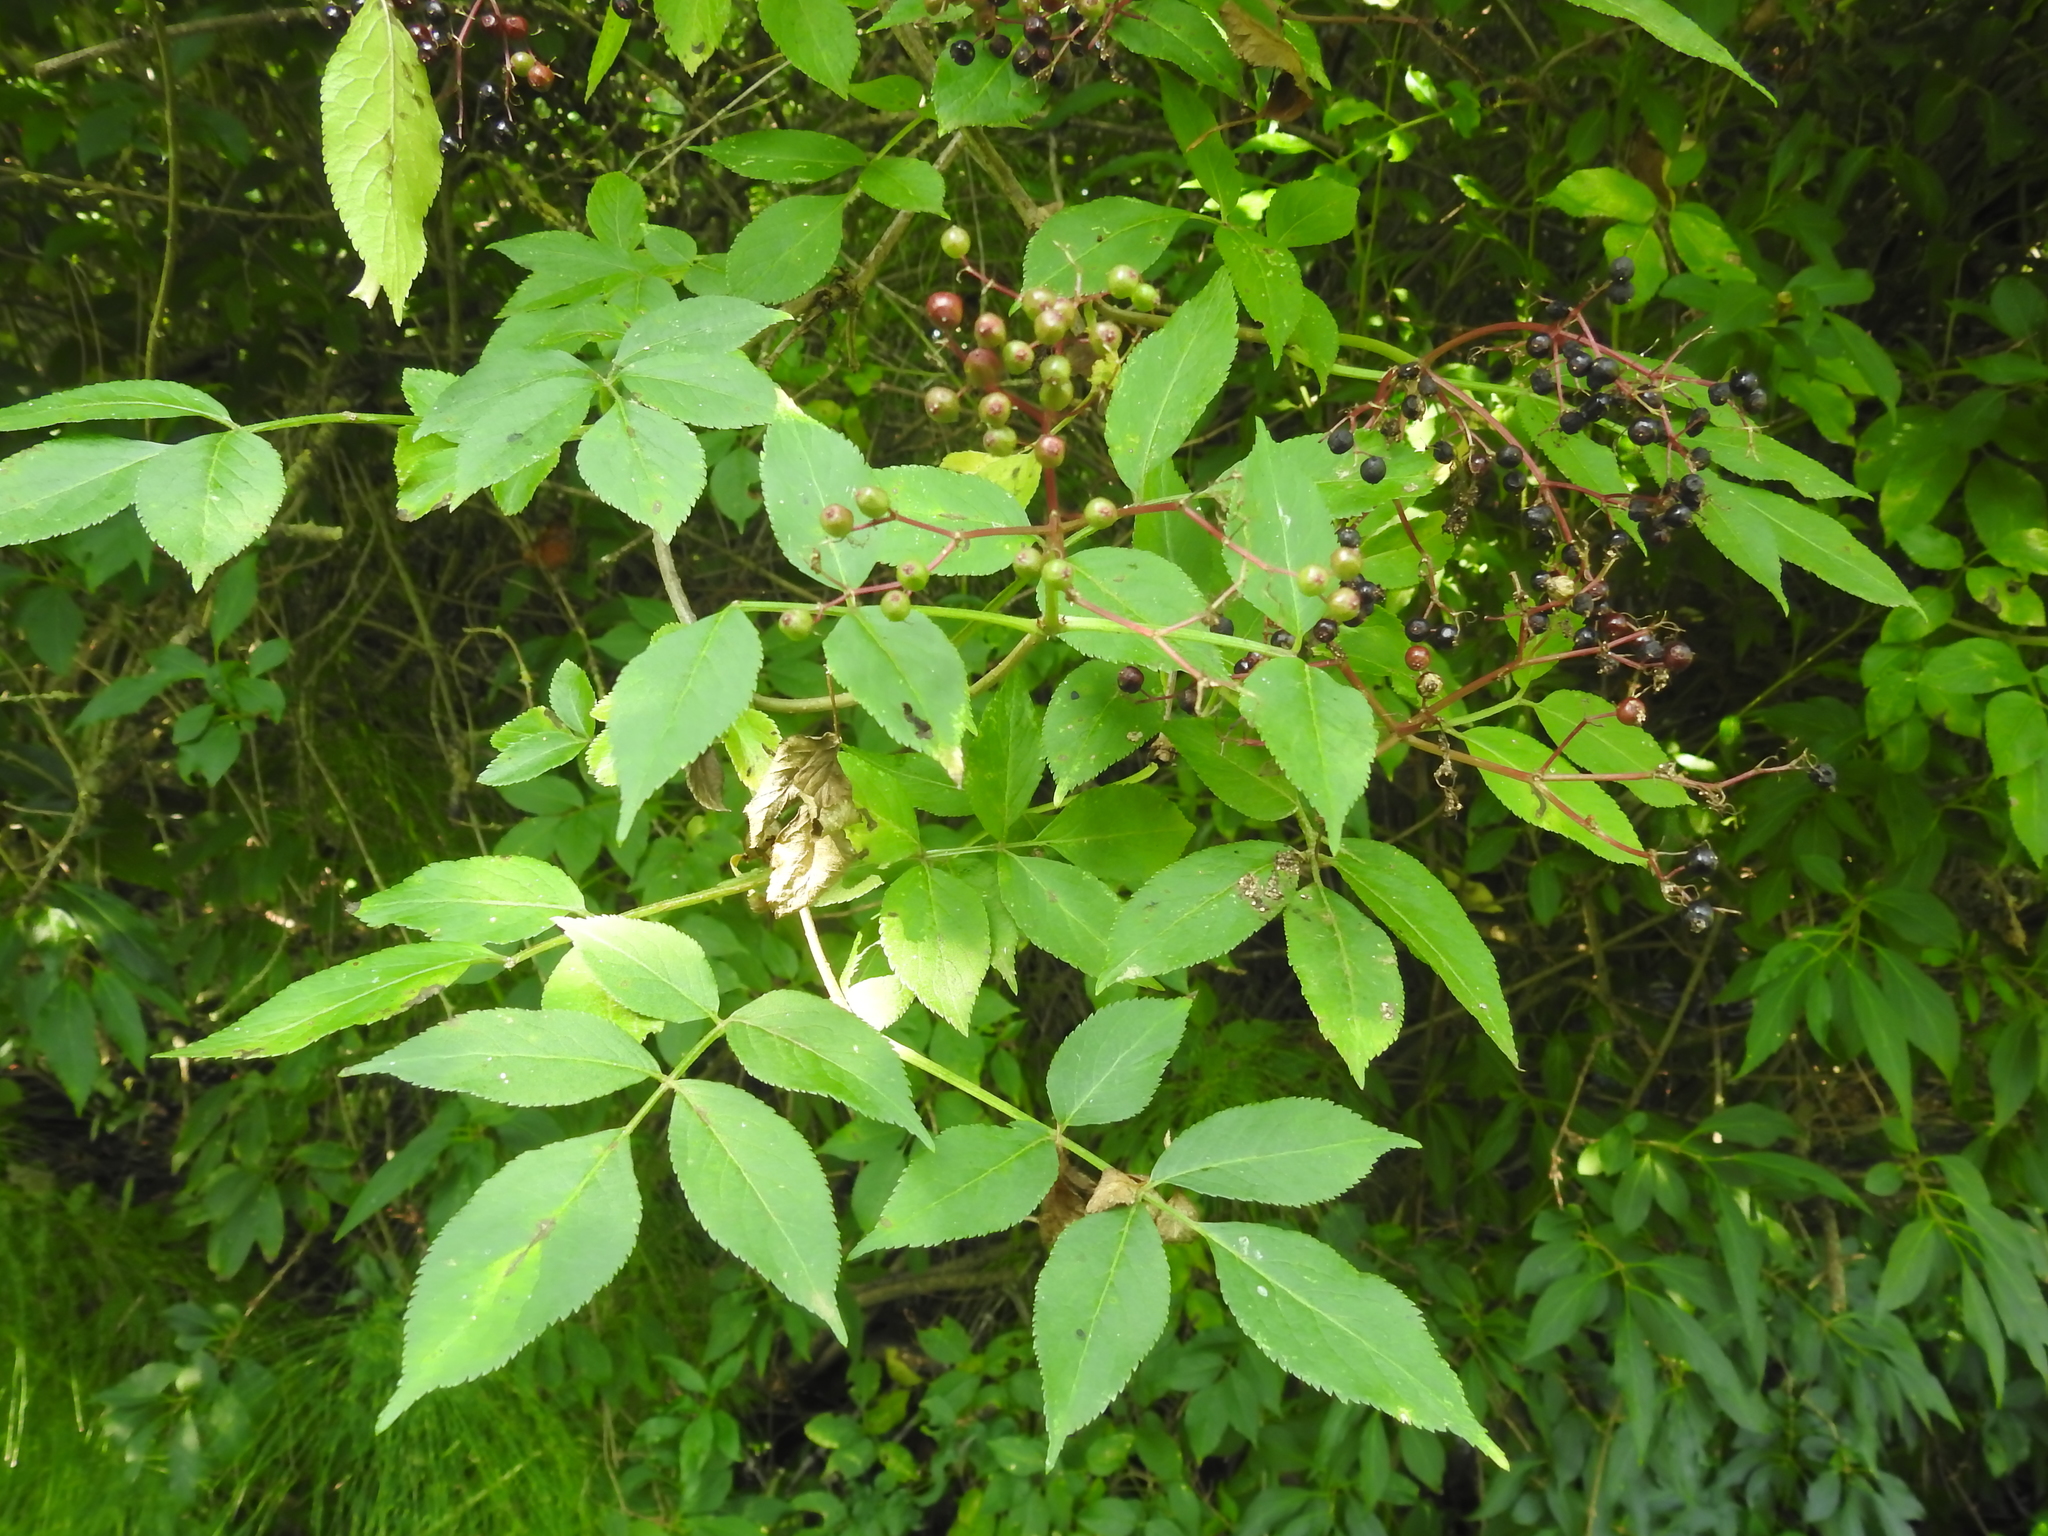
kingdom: Plantae
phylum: Tracheophyta
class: Magnoliopsida
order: Dipsacales
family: Viburnaceae
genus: Sambucus
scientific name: Sambucus nigra
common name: Elder
